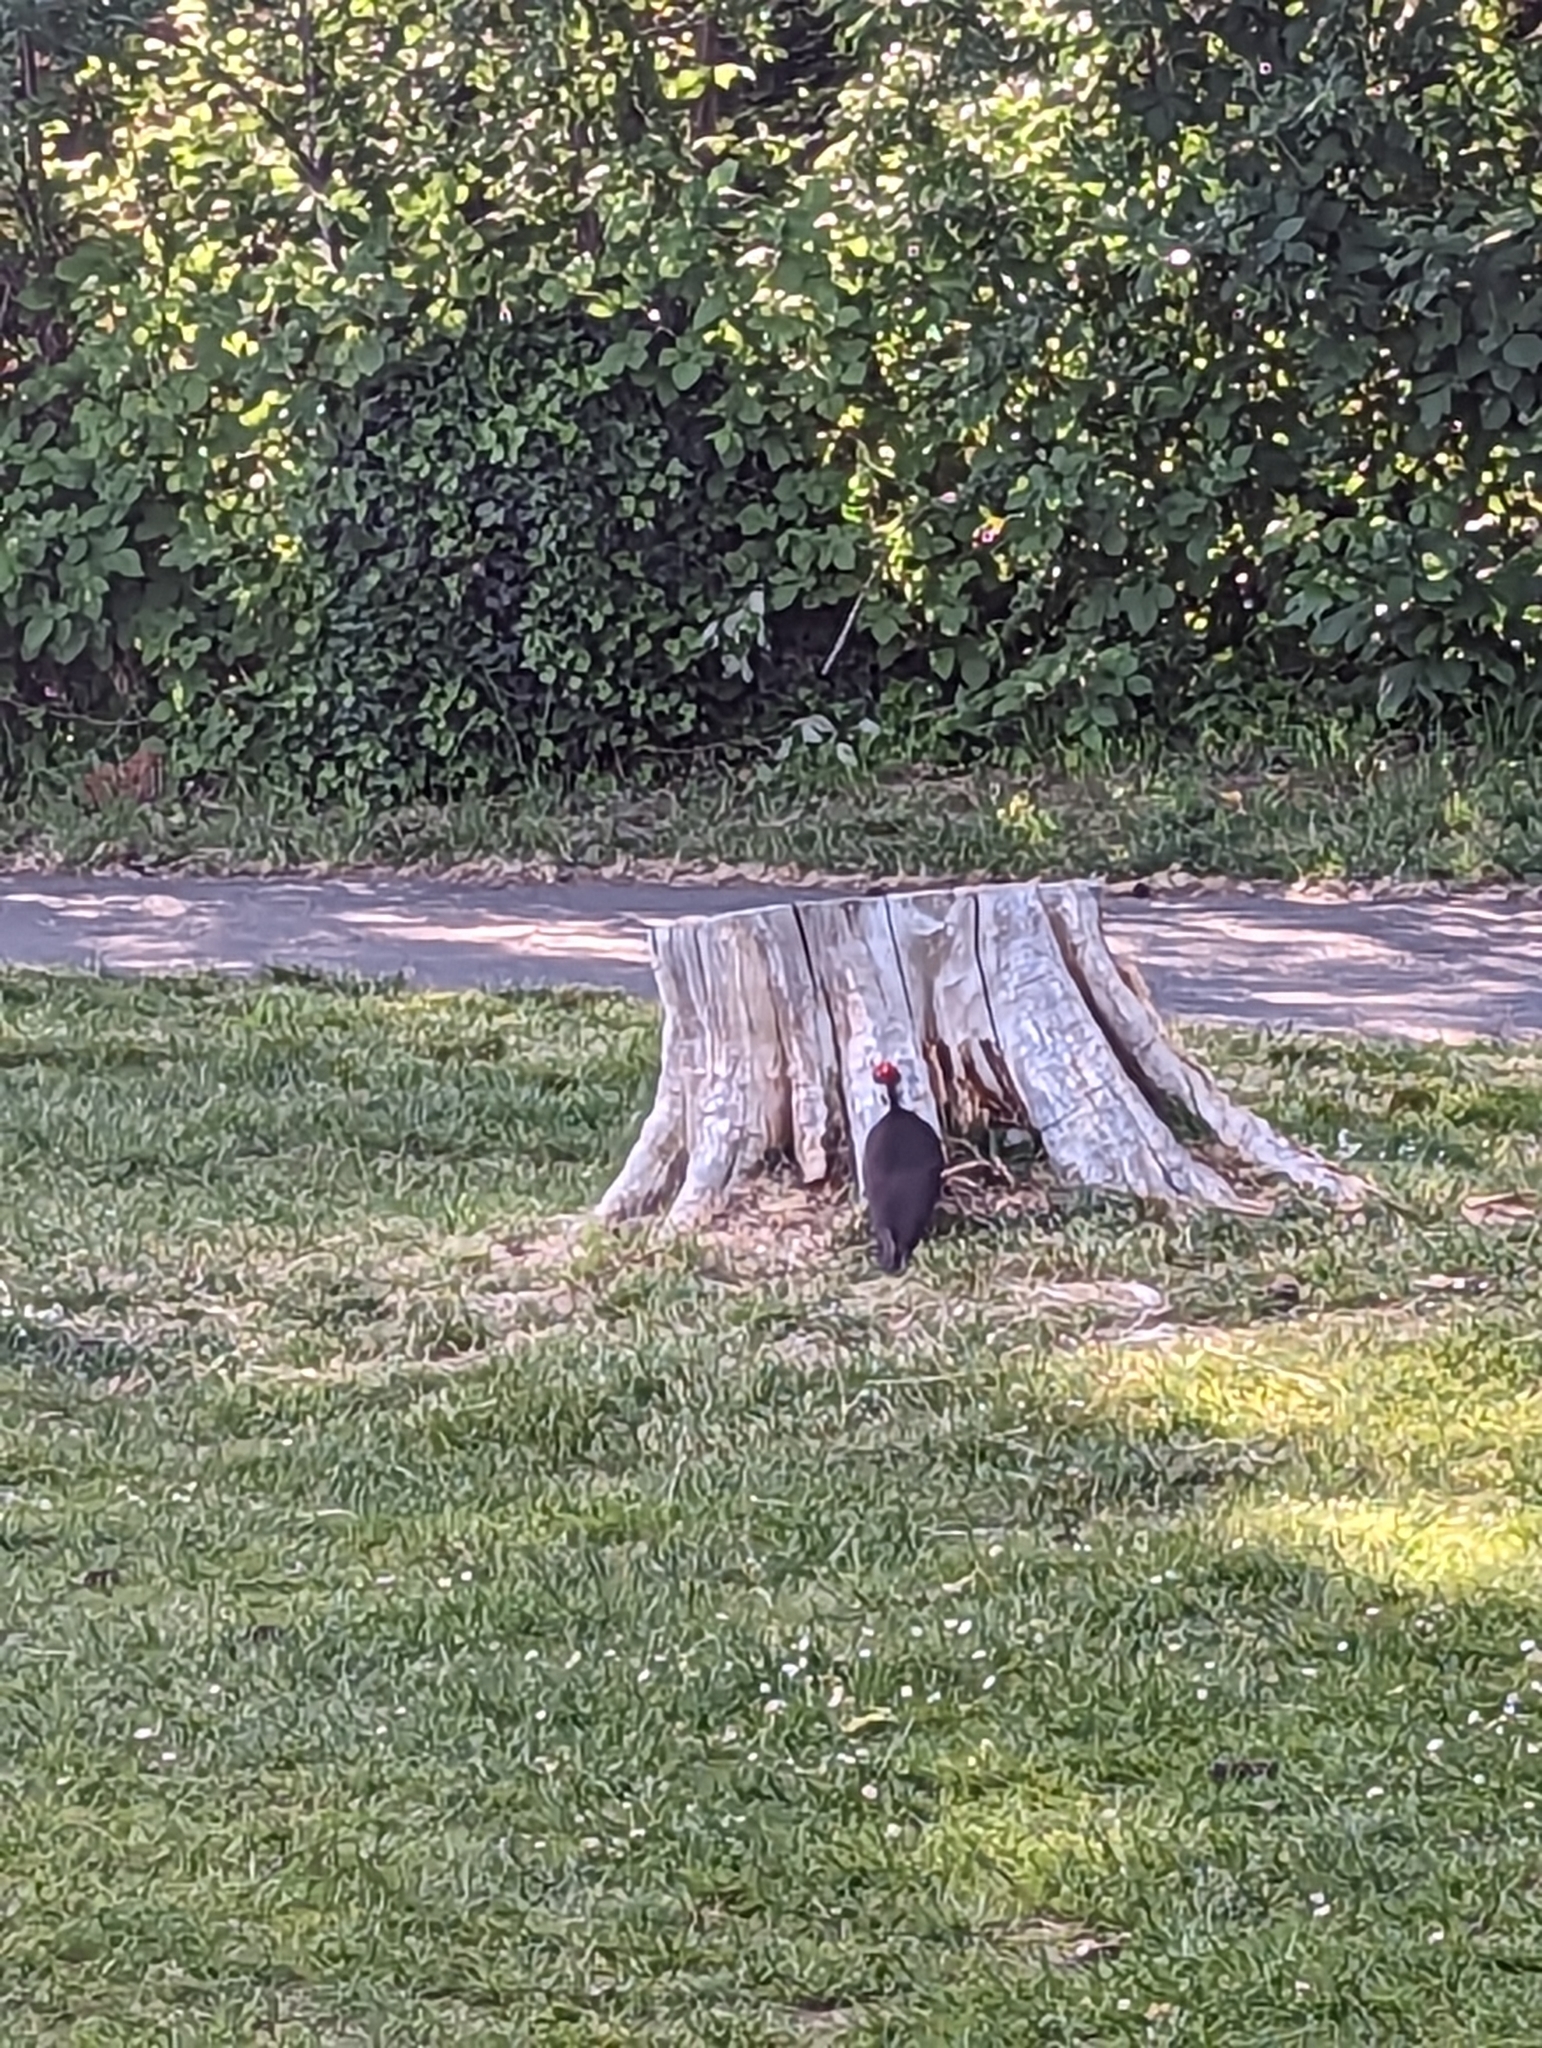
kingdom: Animalia
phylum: Chordata
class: Aves
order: Piciformes
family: Picidae
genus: Dryocopus
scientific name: Dryocopus pileatus
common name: Pileated woodpecker
